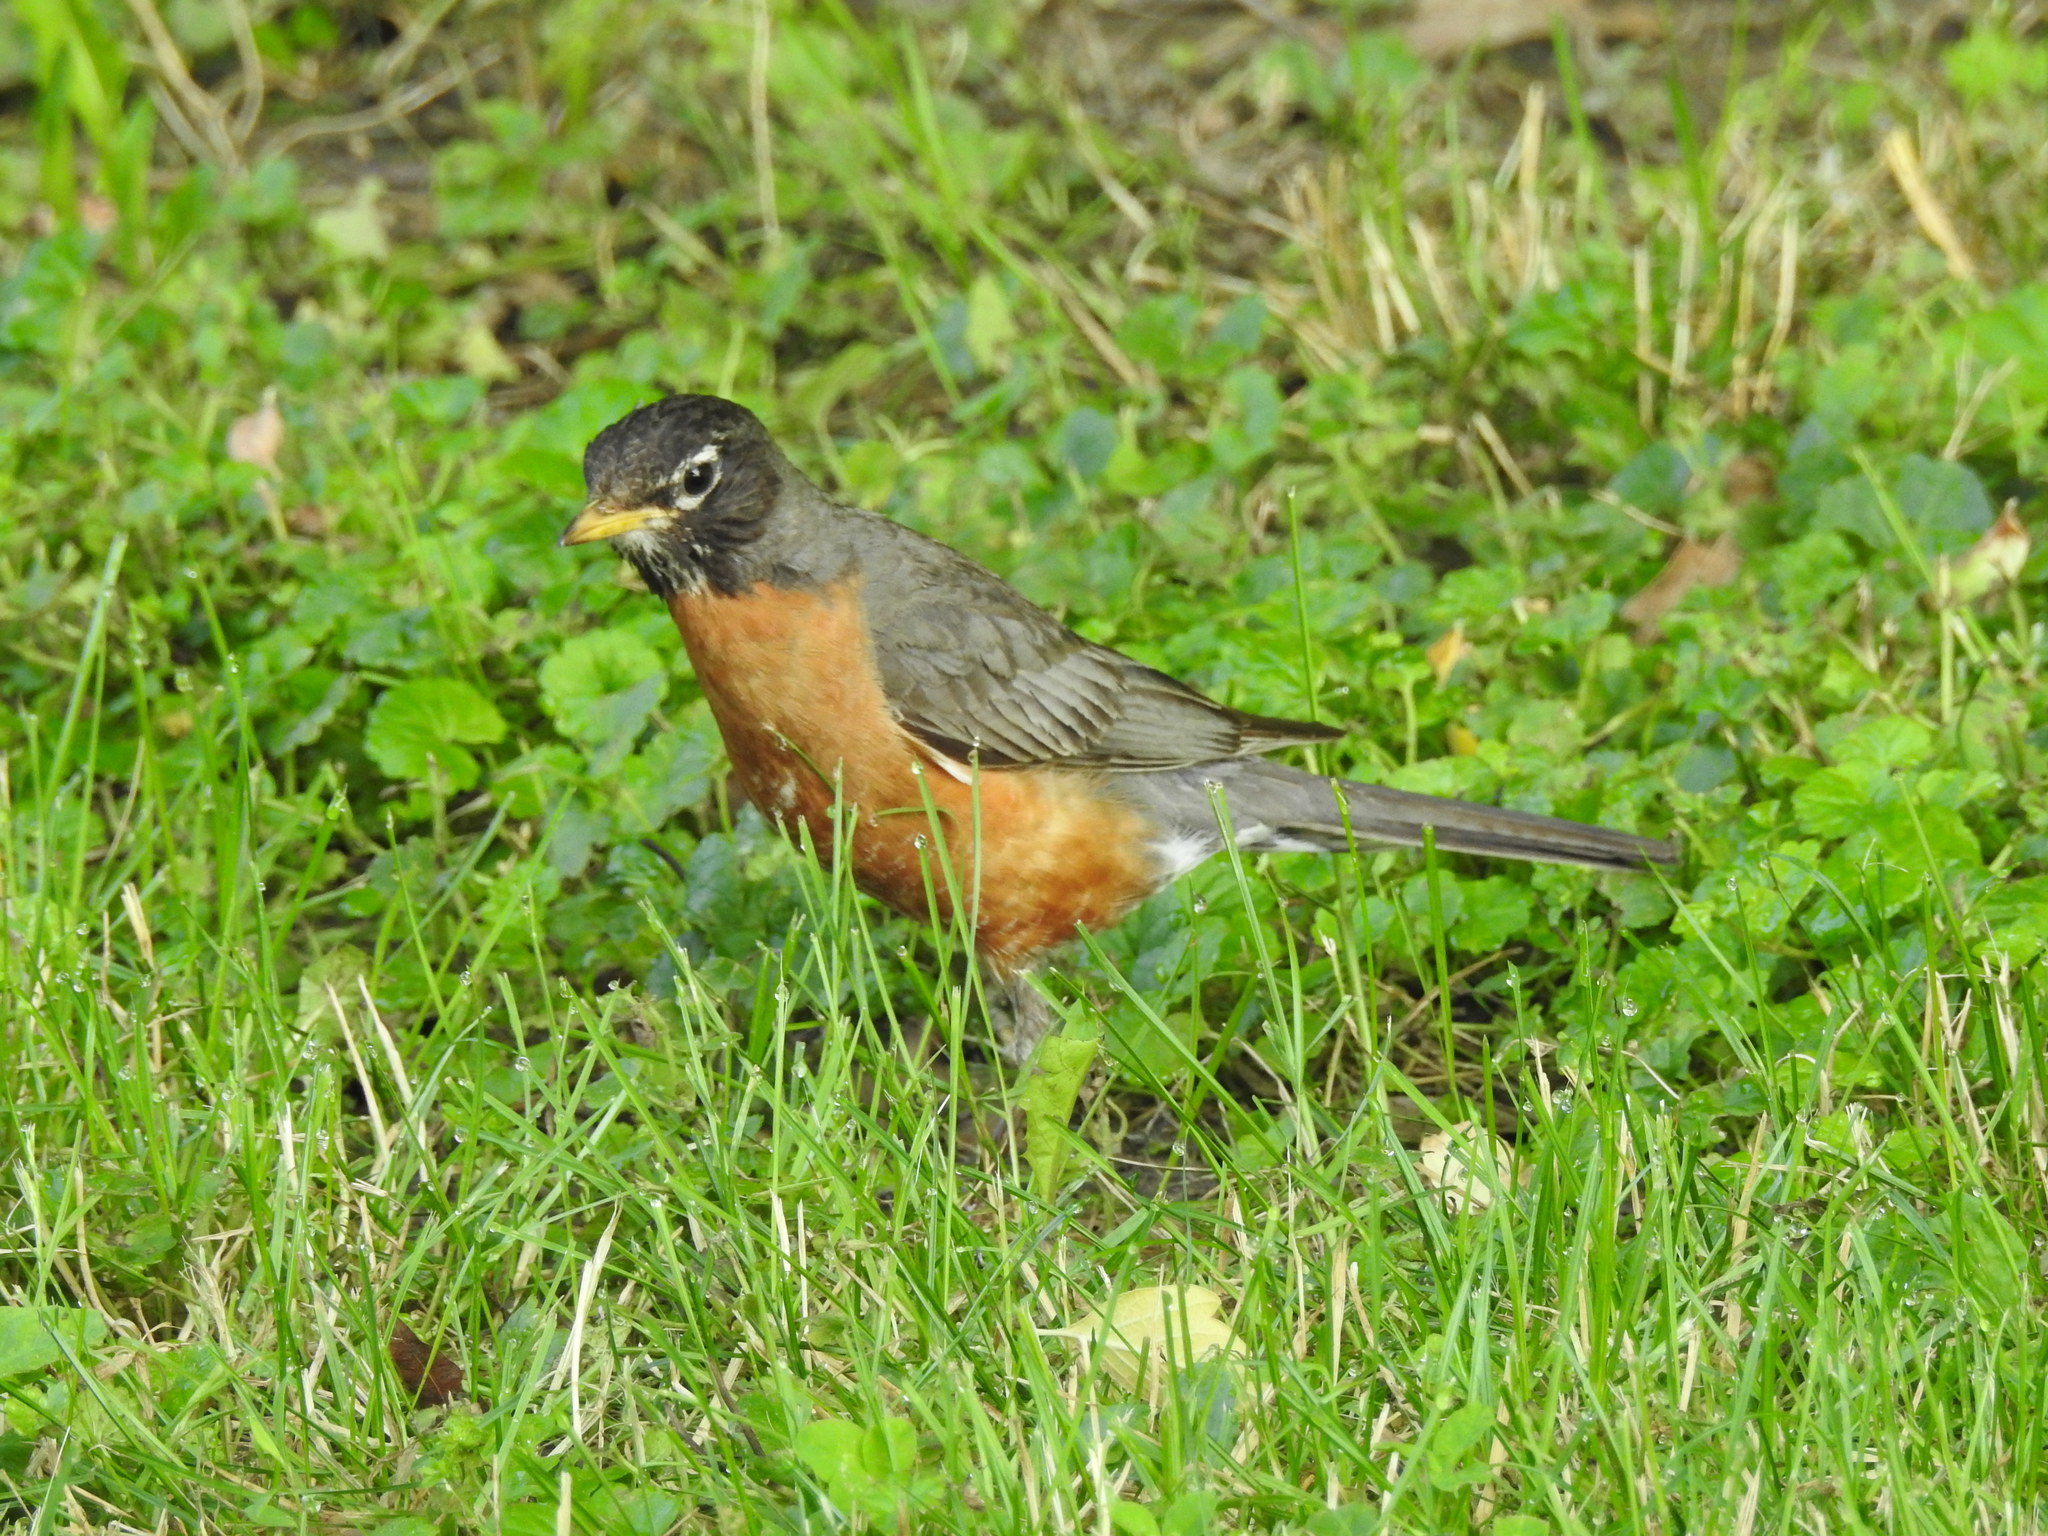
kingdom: Animalia
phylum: Chordata
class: Aves
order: Passeriformes
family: Turdidae
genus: Turdus
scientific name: Turdus migratorius
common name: American robin
